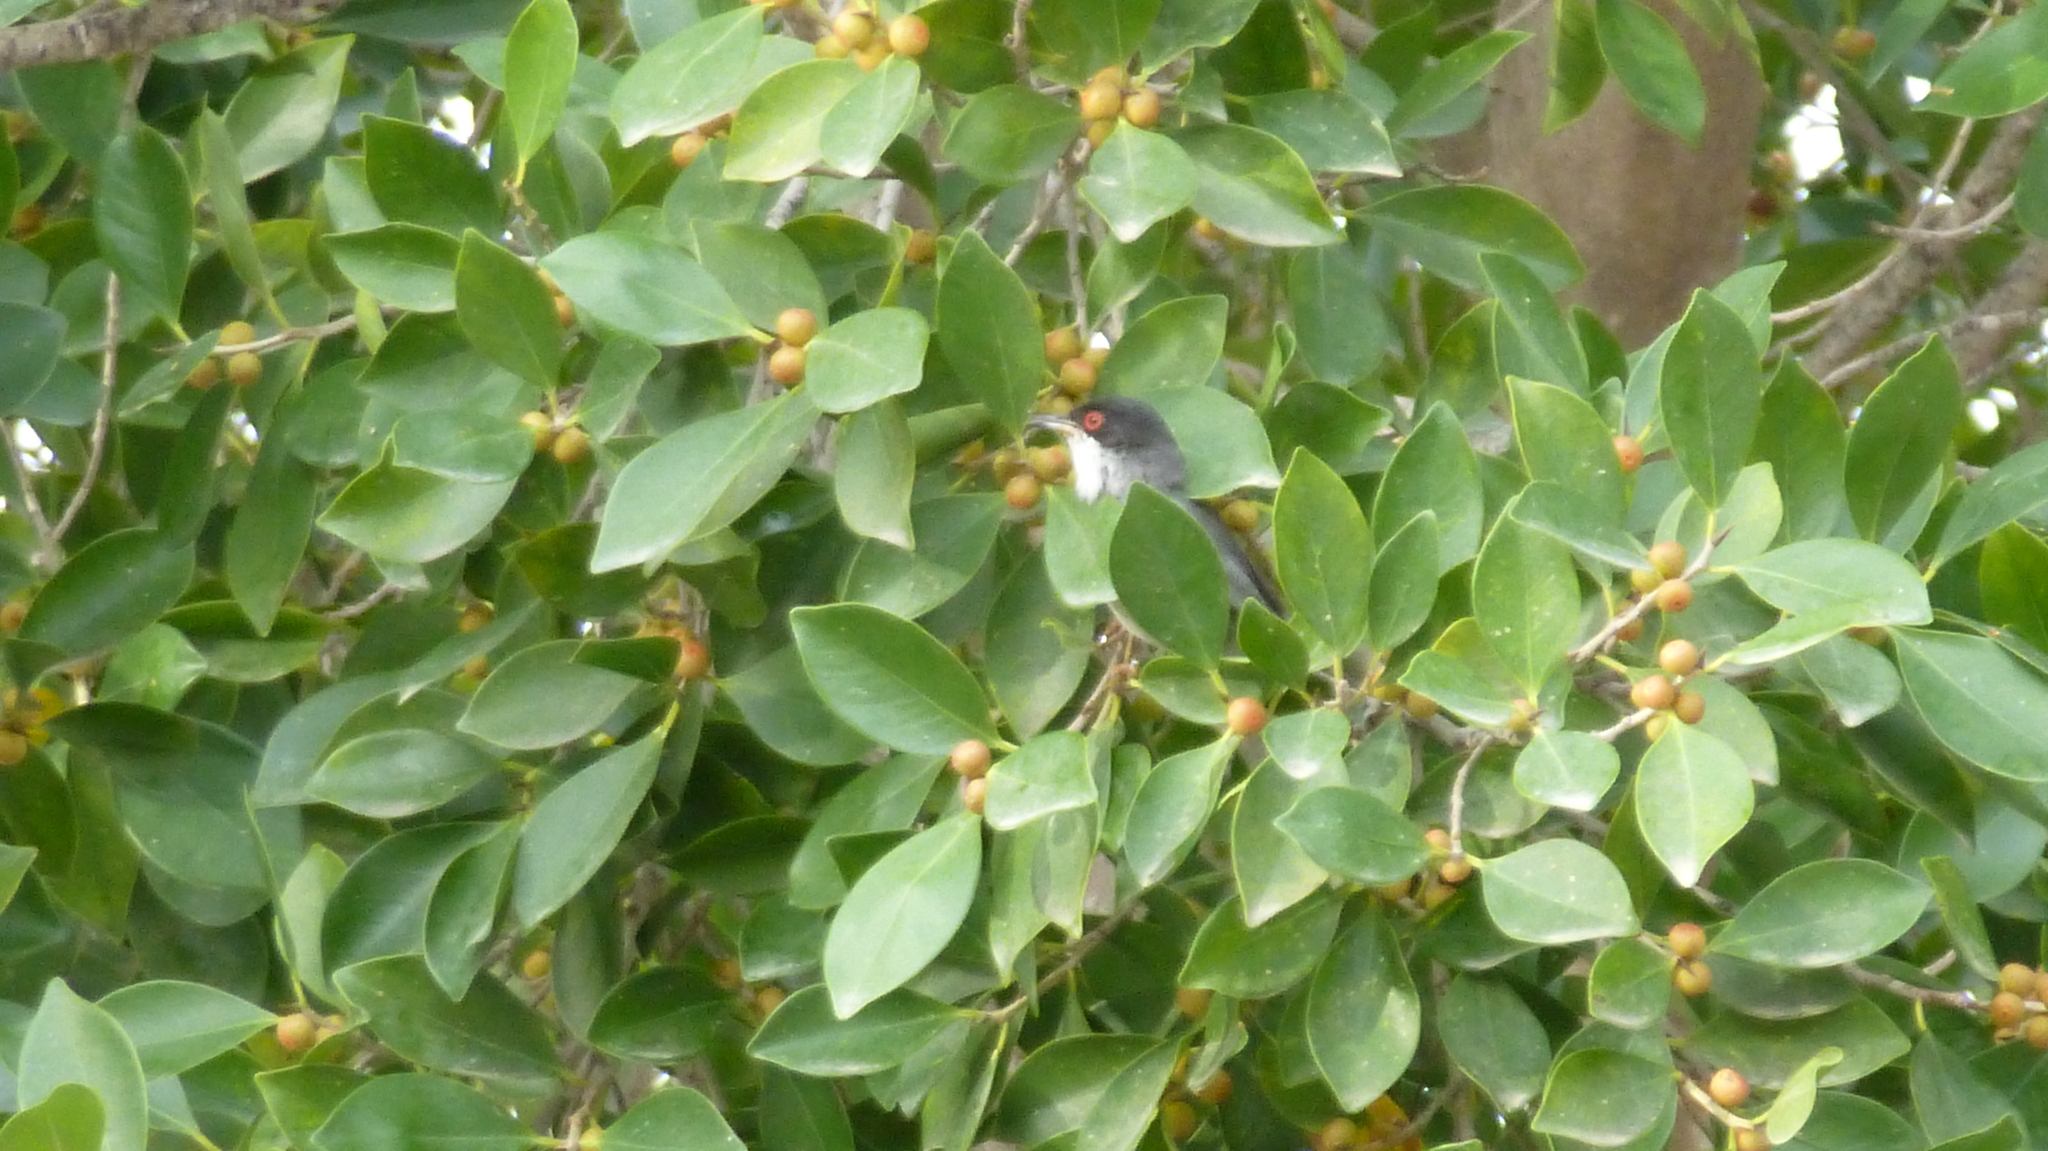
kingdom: Animalia
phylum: Chordata
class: Aves
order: Passeriformes
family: Sylviidae
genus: Curruca
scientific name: Curruca melanocephala
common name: Sardinian warbler
